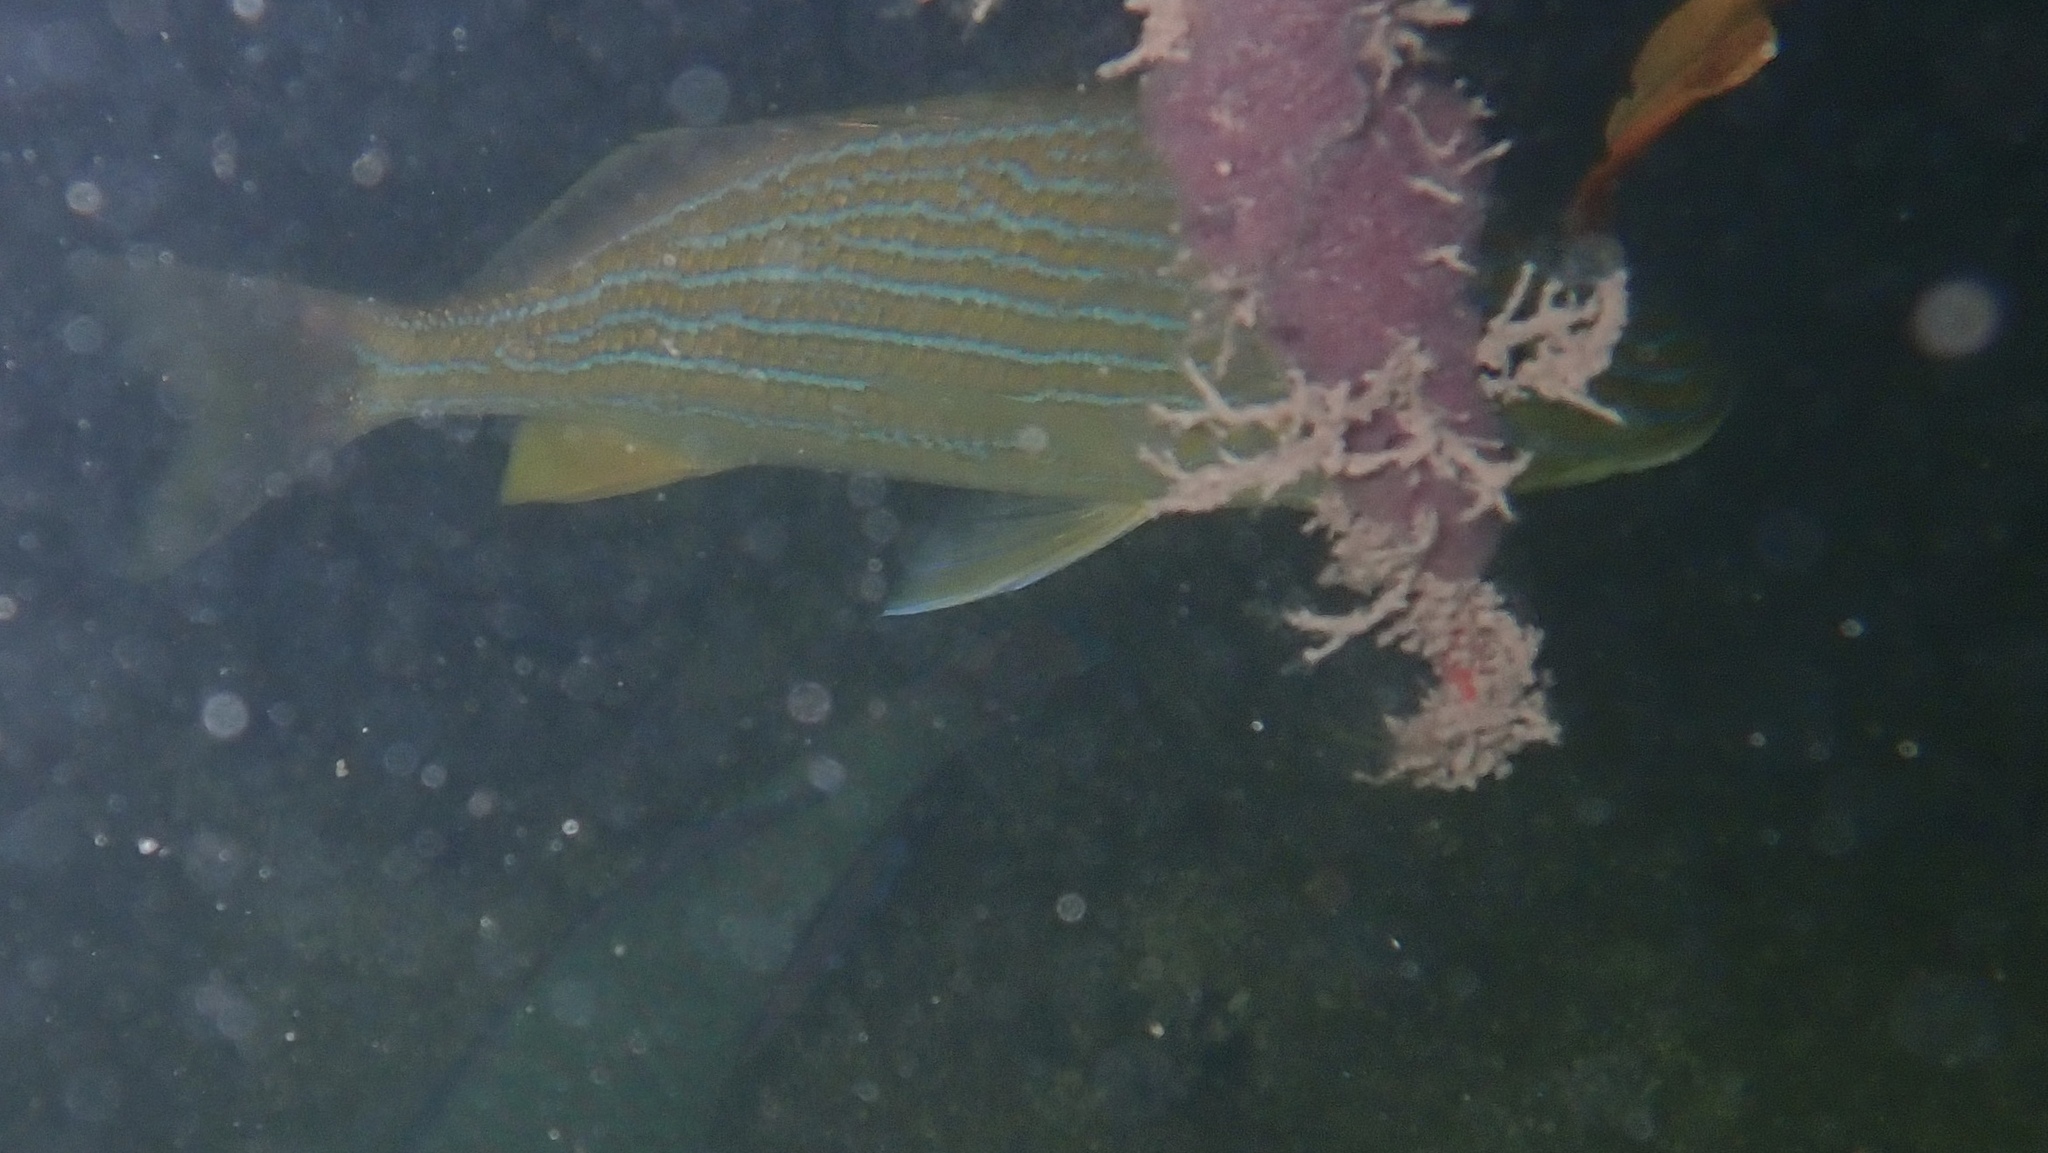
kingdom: Animalia
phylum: Chordata
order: Perciformes
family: Haemulidae
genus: Haemulon
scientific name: Haemulon sciurus
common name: Bluestriped grunt
